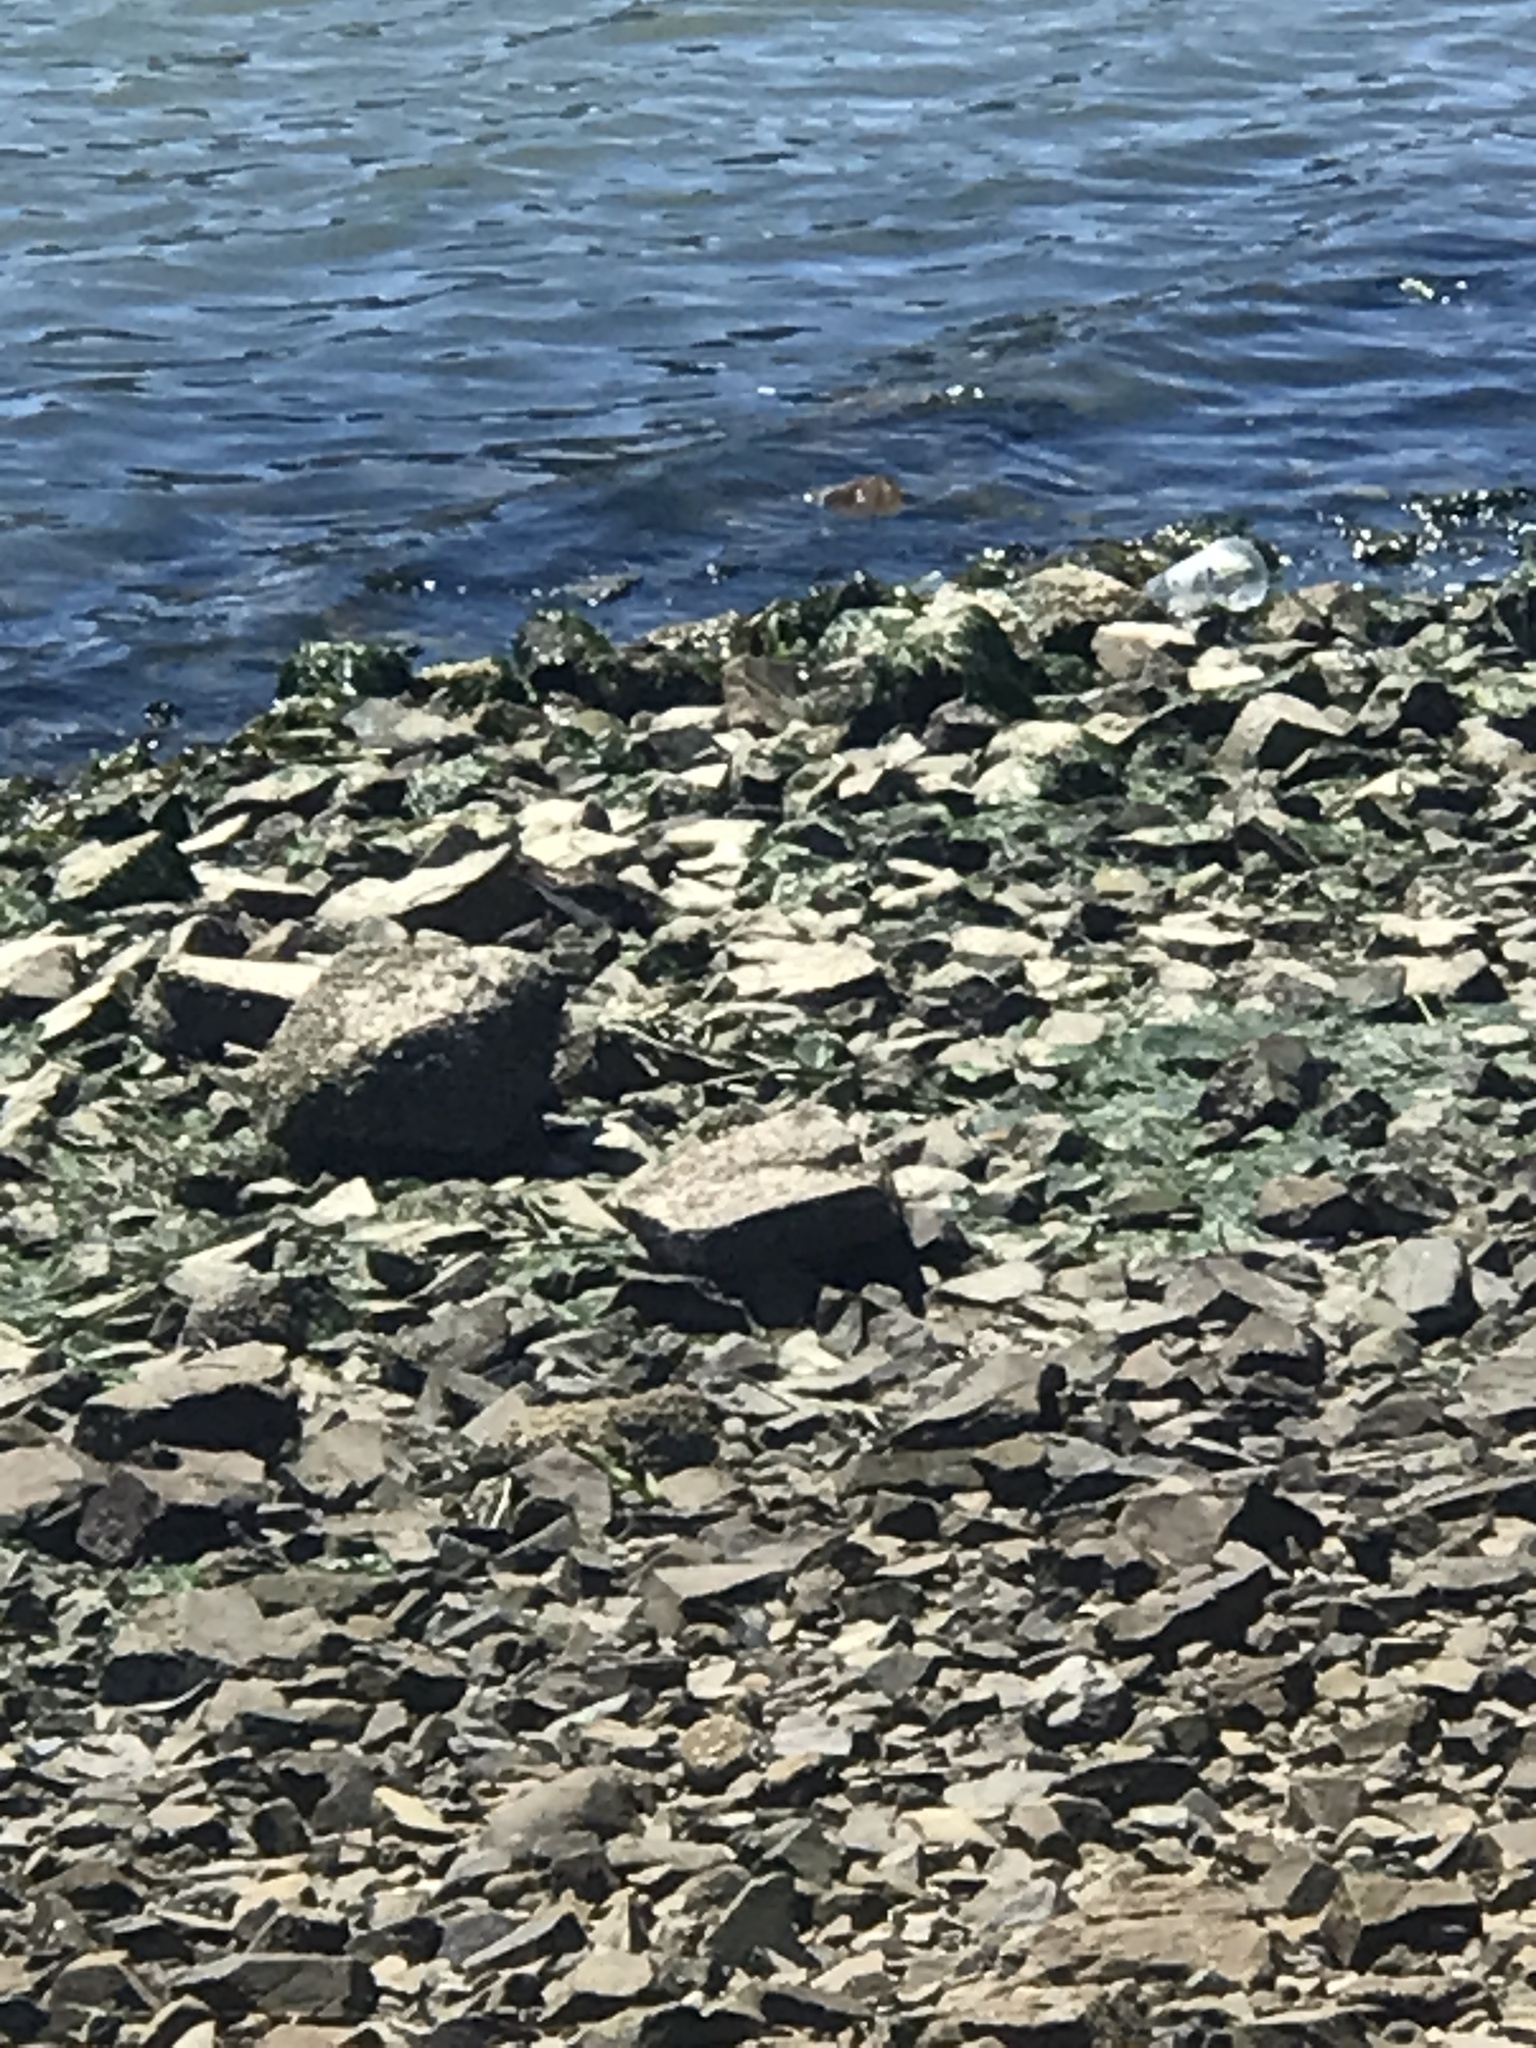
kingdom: Animalia
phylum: Chordata
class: Aves
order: Charadriiformes
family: Scolopacidae
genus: Arenaria
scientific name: Arenaria melanocephala
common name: Black turnstone
